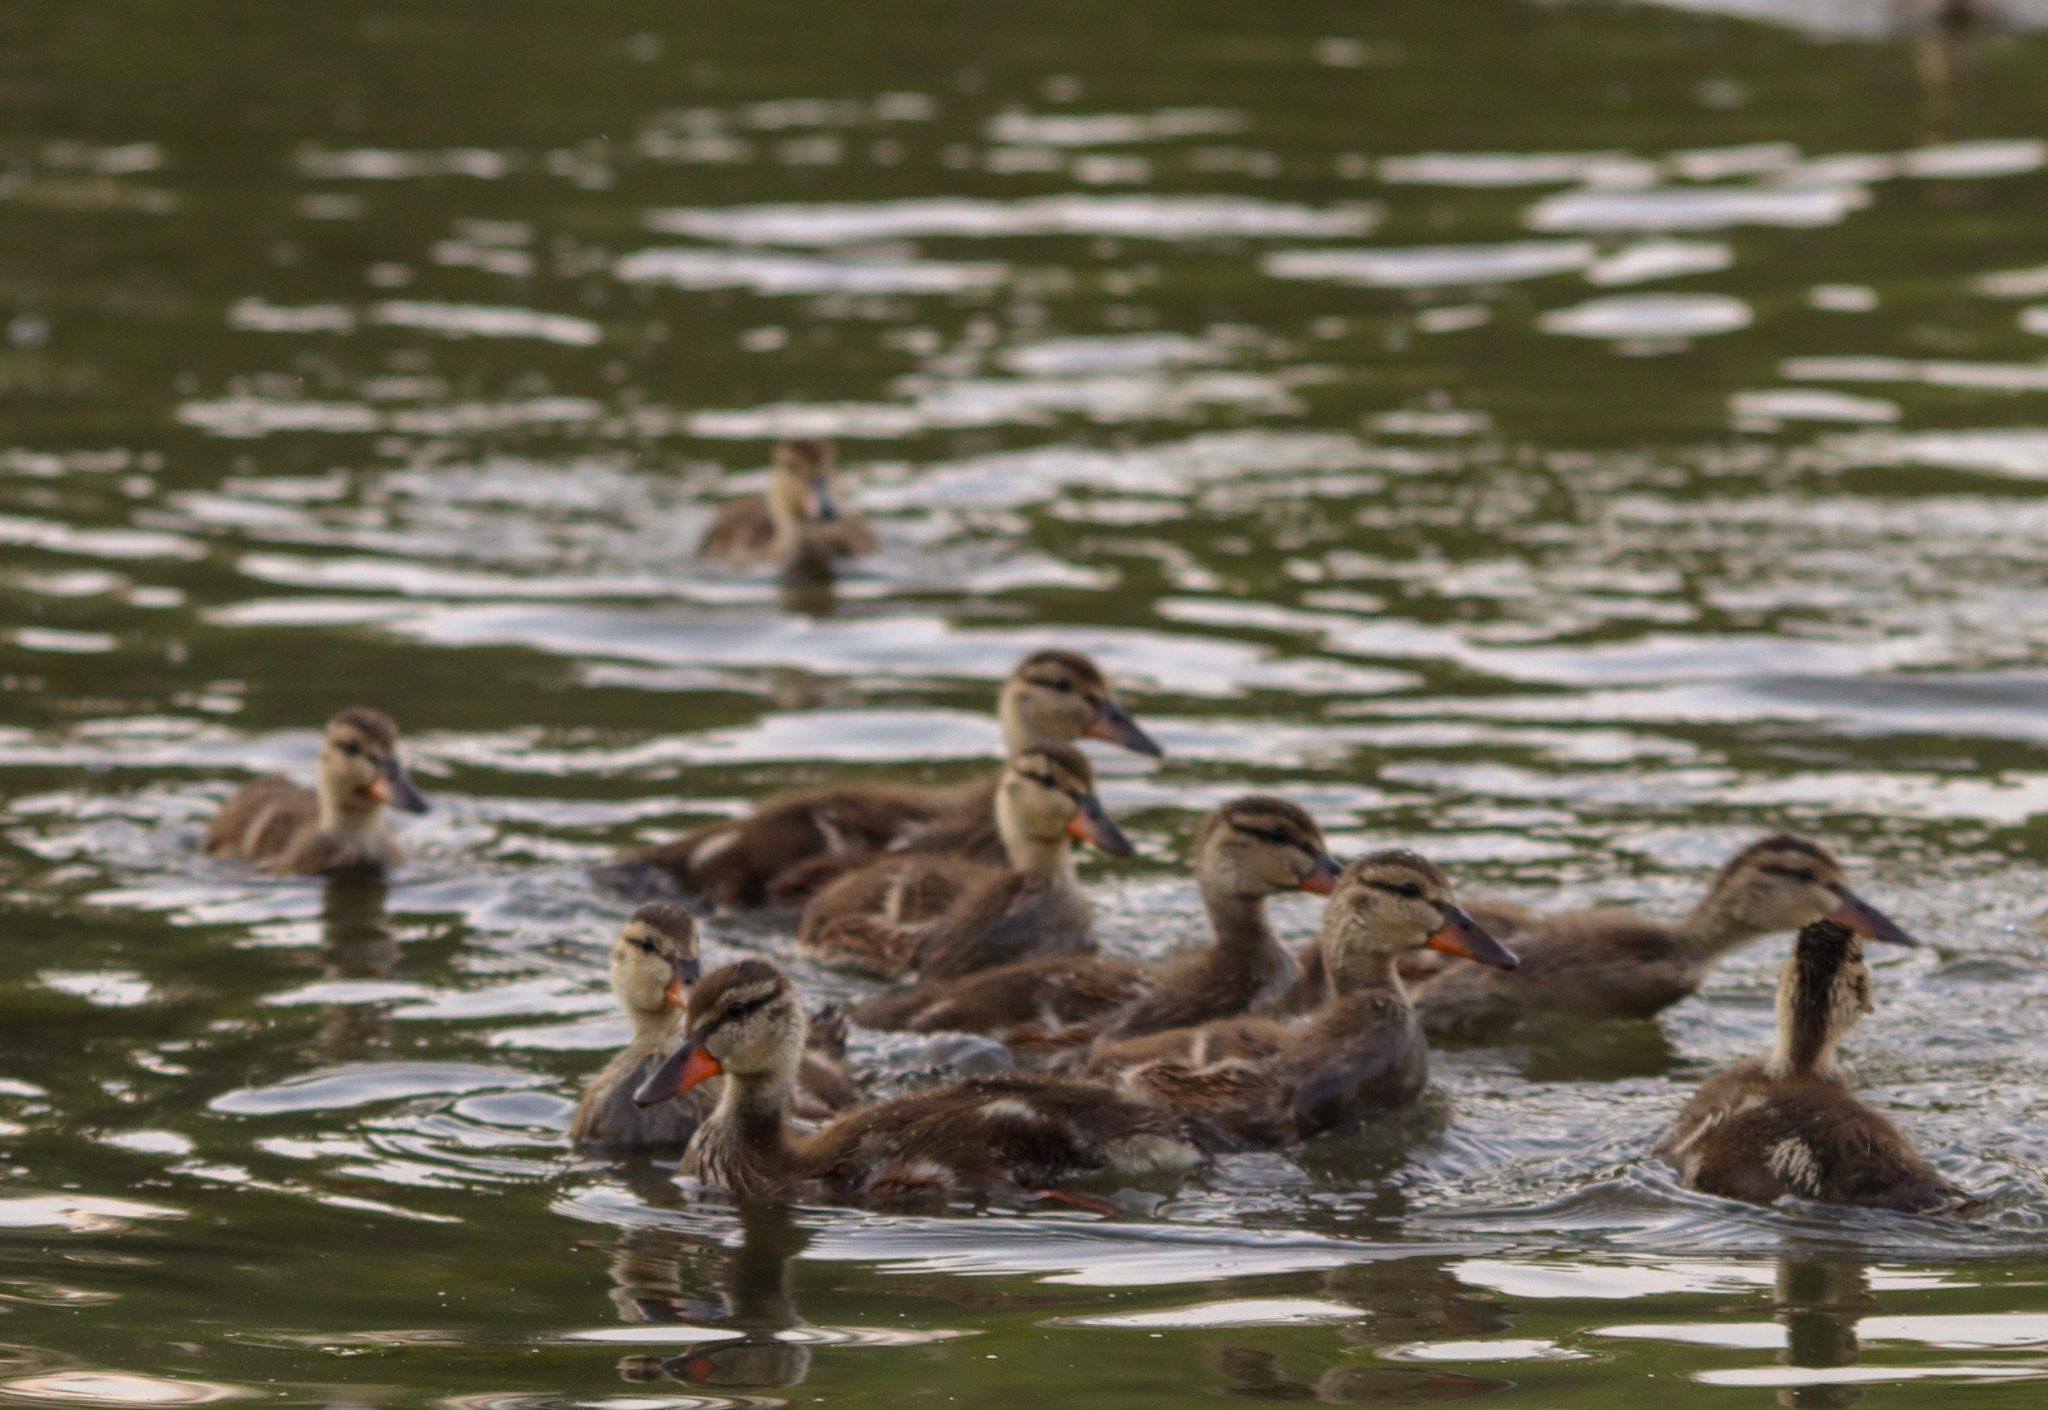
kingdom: Animalia
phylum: Chordata
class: Aves
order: Anseriformes
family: Anatidae
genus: Anas
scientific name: Anas platyrhynchos
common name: Mallard
